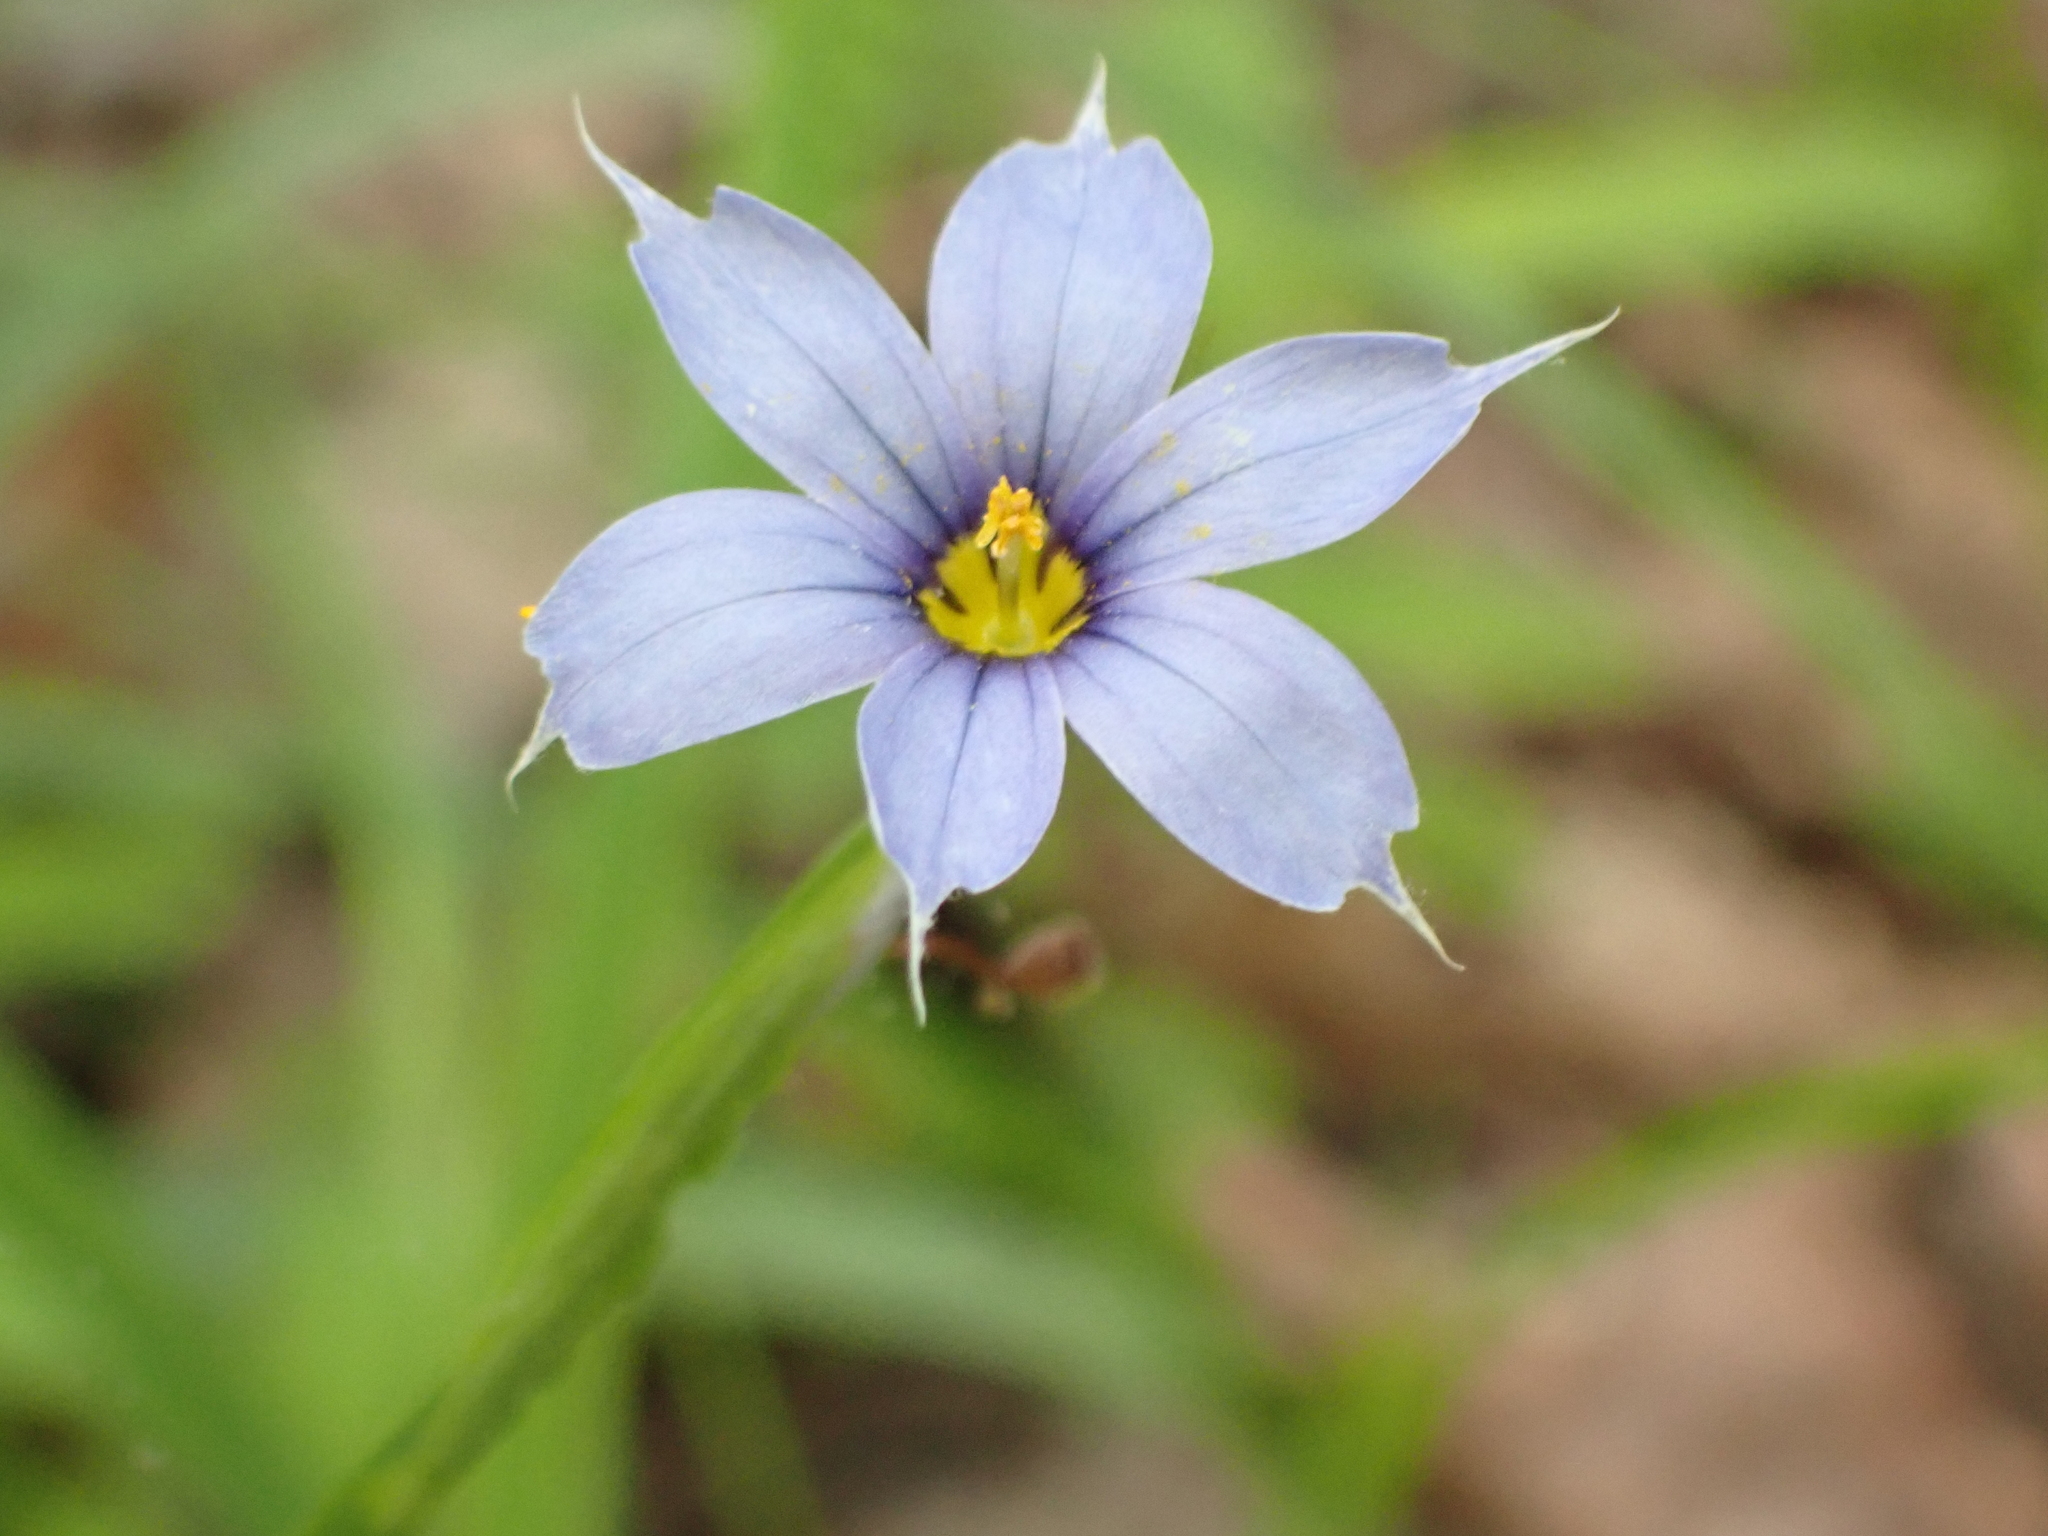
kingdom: Plantae
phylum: Tracheophyta
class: Liliopsida
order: Asparagales
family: Iridaceae
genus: Sisyrinchium
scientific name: Sisyrinchium angustifolium
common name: Narrow-leaf blue-eyed-grass
